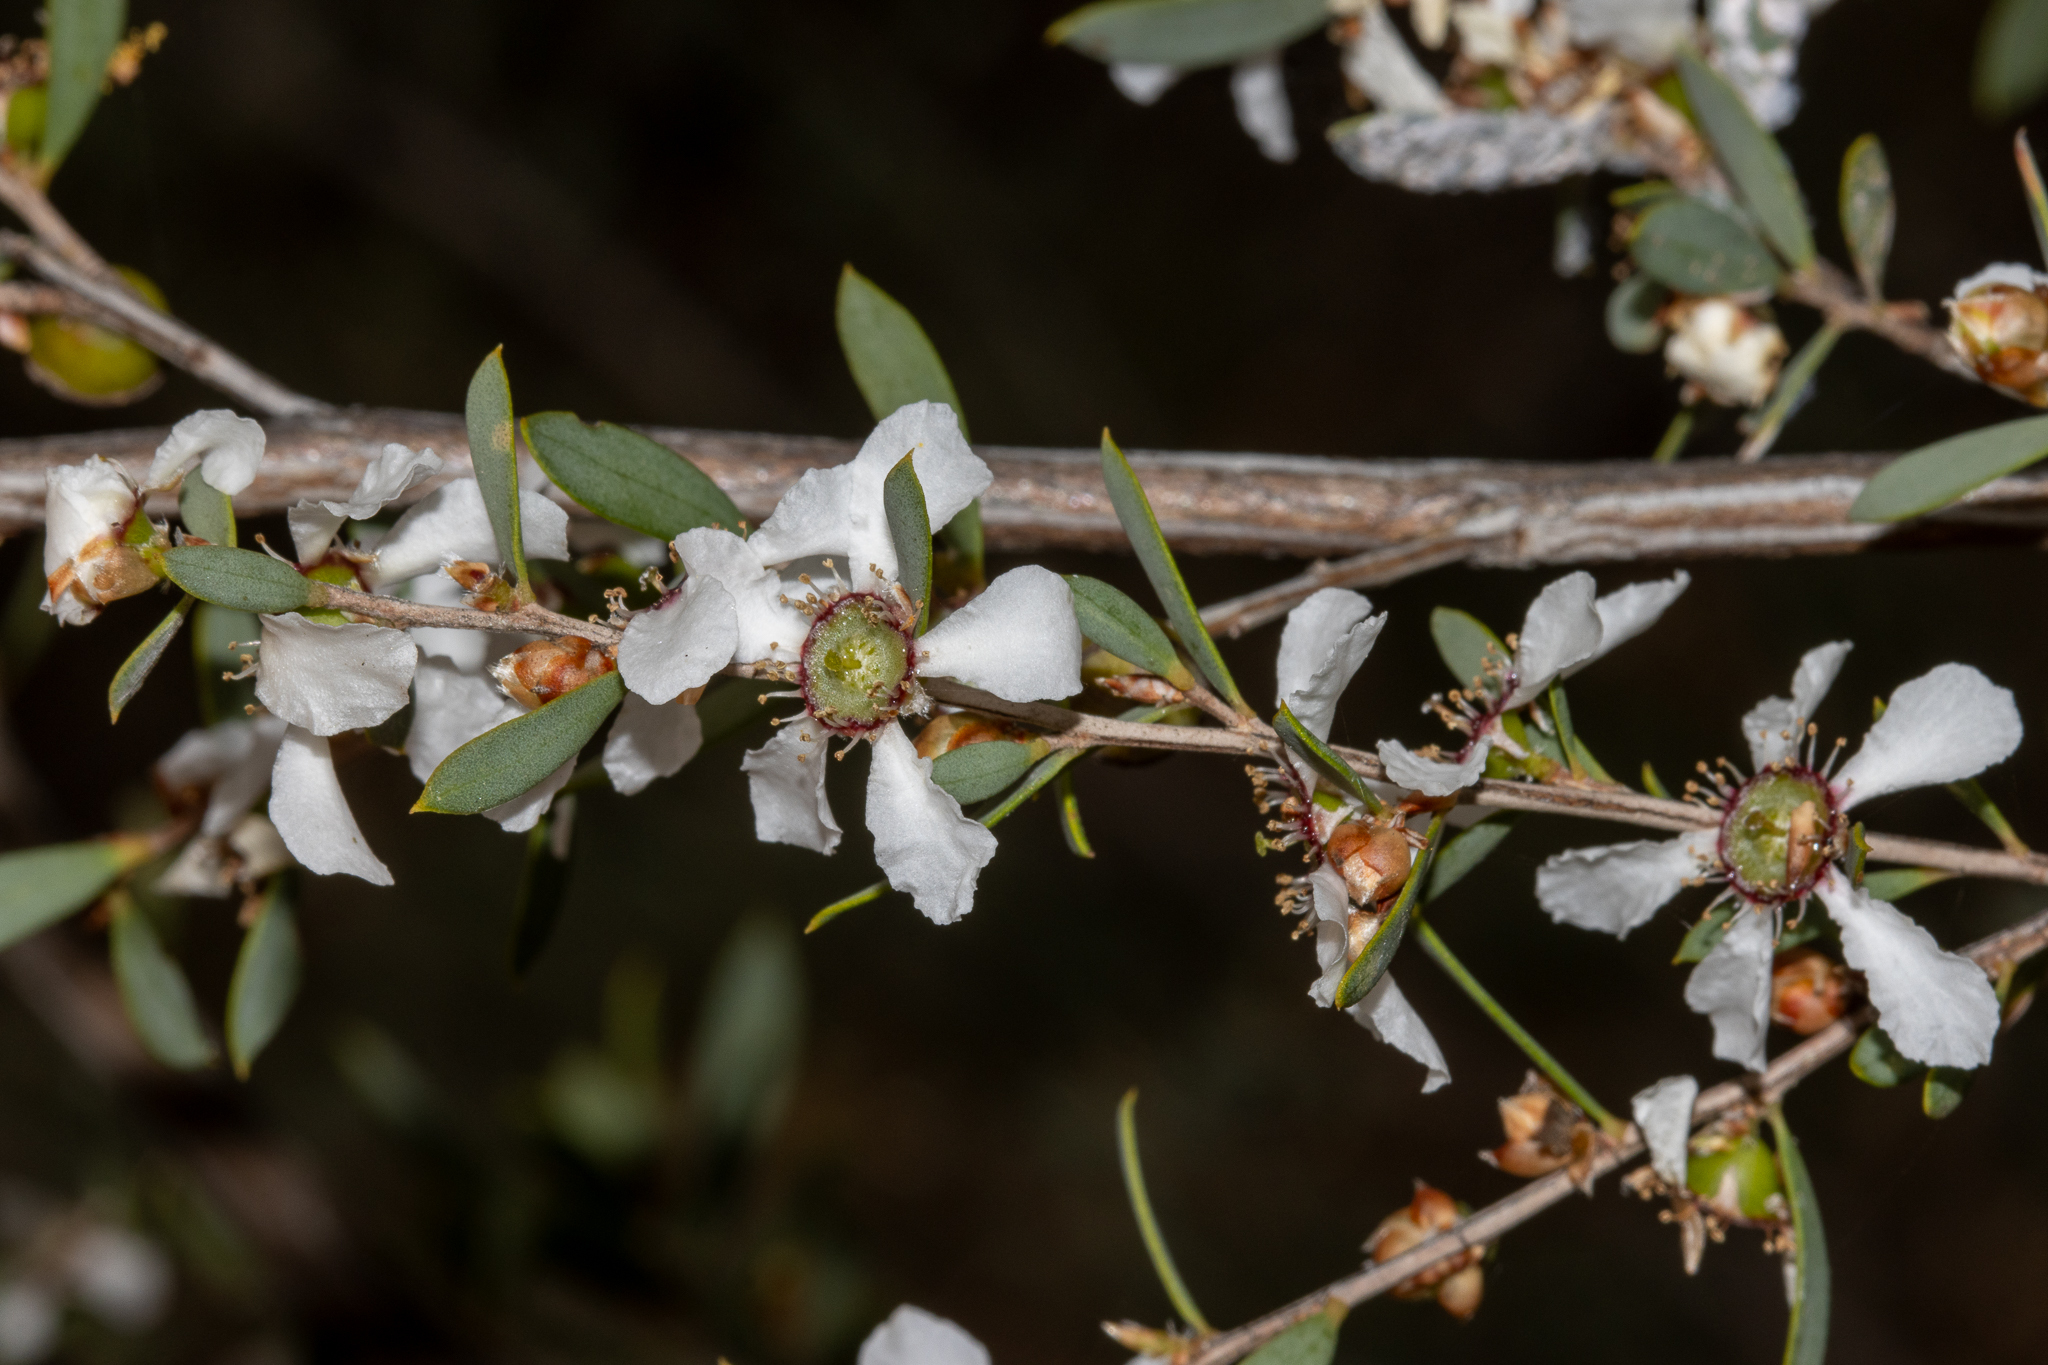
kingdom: Plantae
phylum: Tracheophyta
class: Magnoliopsida
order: Myrtales
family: Myrtaceae
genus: Leptospermum
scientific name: Leptospermum coriaceum
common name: Mallee teatree
